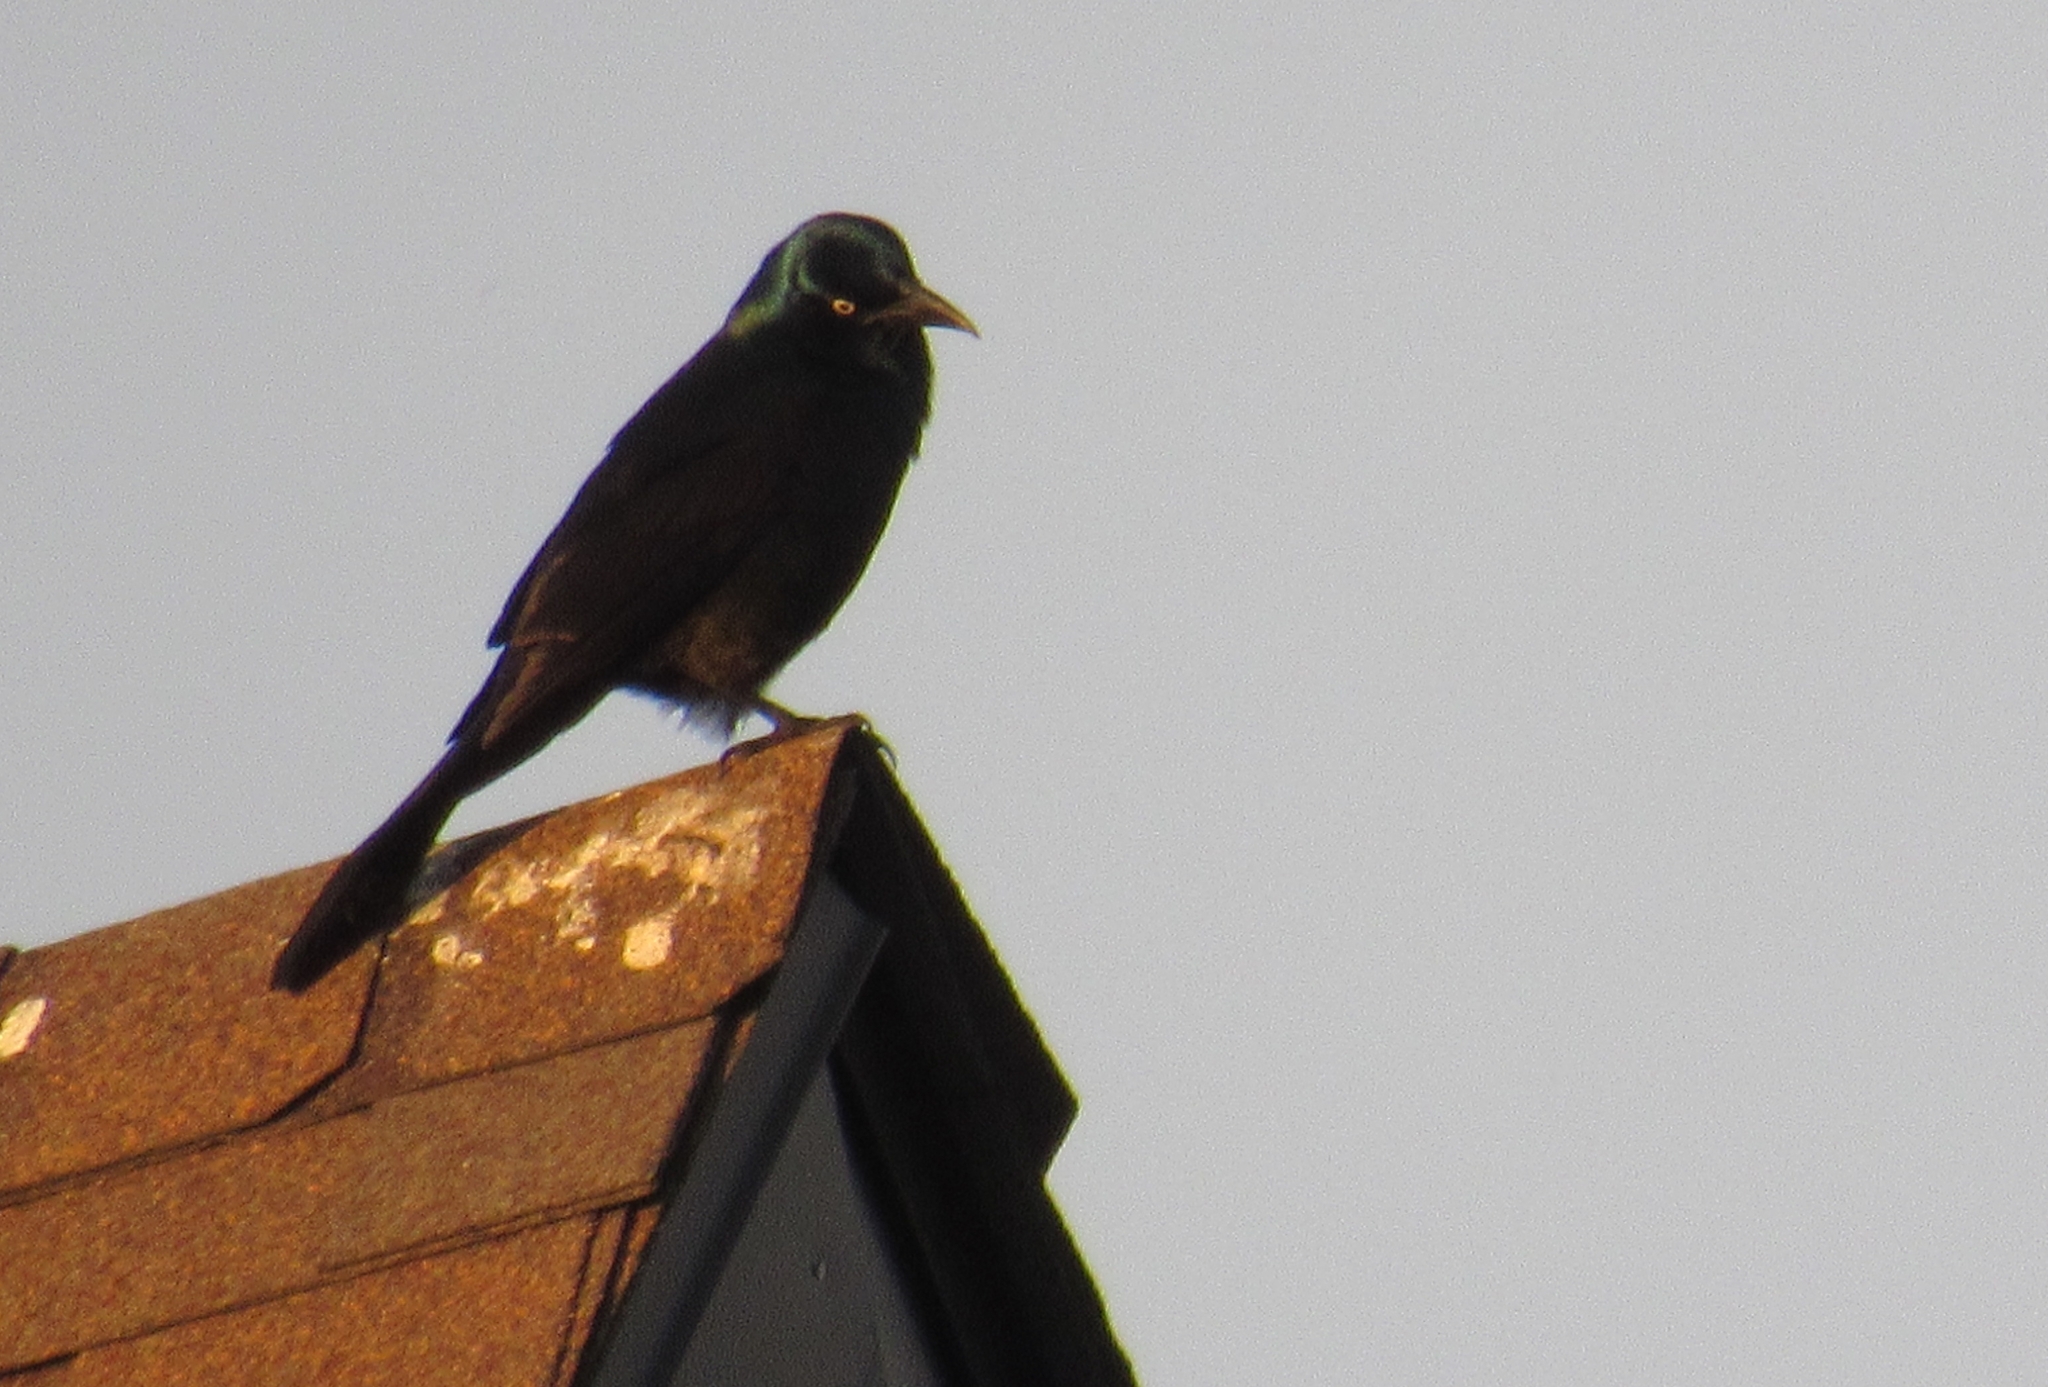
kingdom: Animalia
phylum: Chordata
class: Aves
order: Passeriformes
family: Icteridae
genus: Quiscalus
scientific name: Quiscalus quiscula
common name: Common grackle
